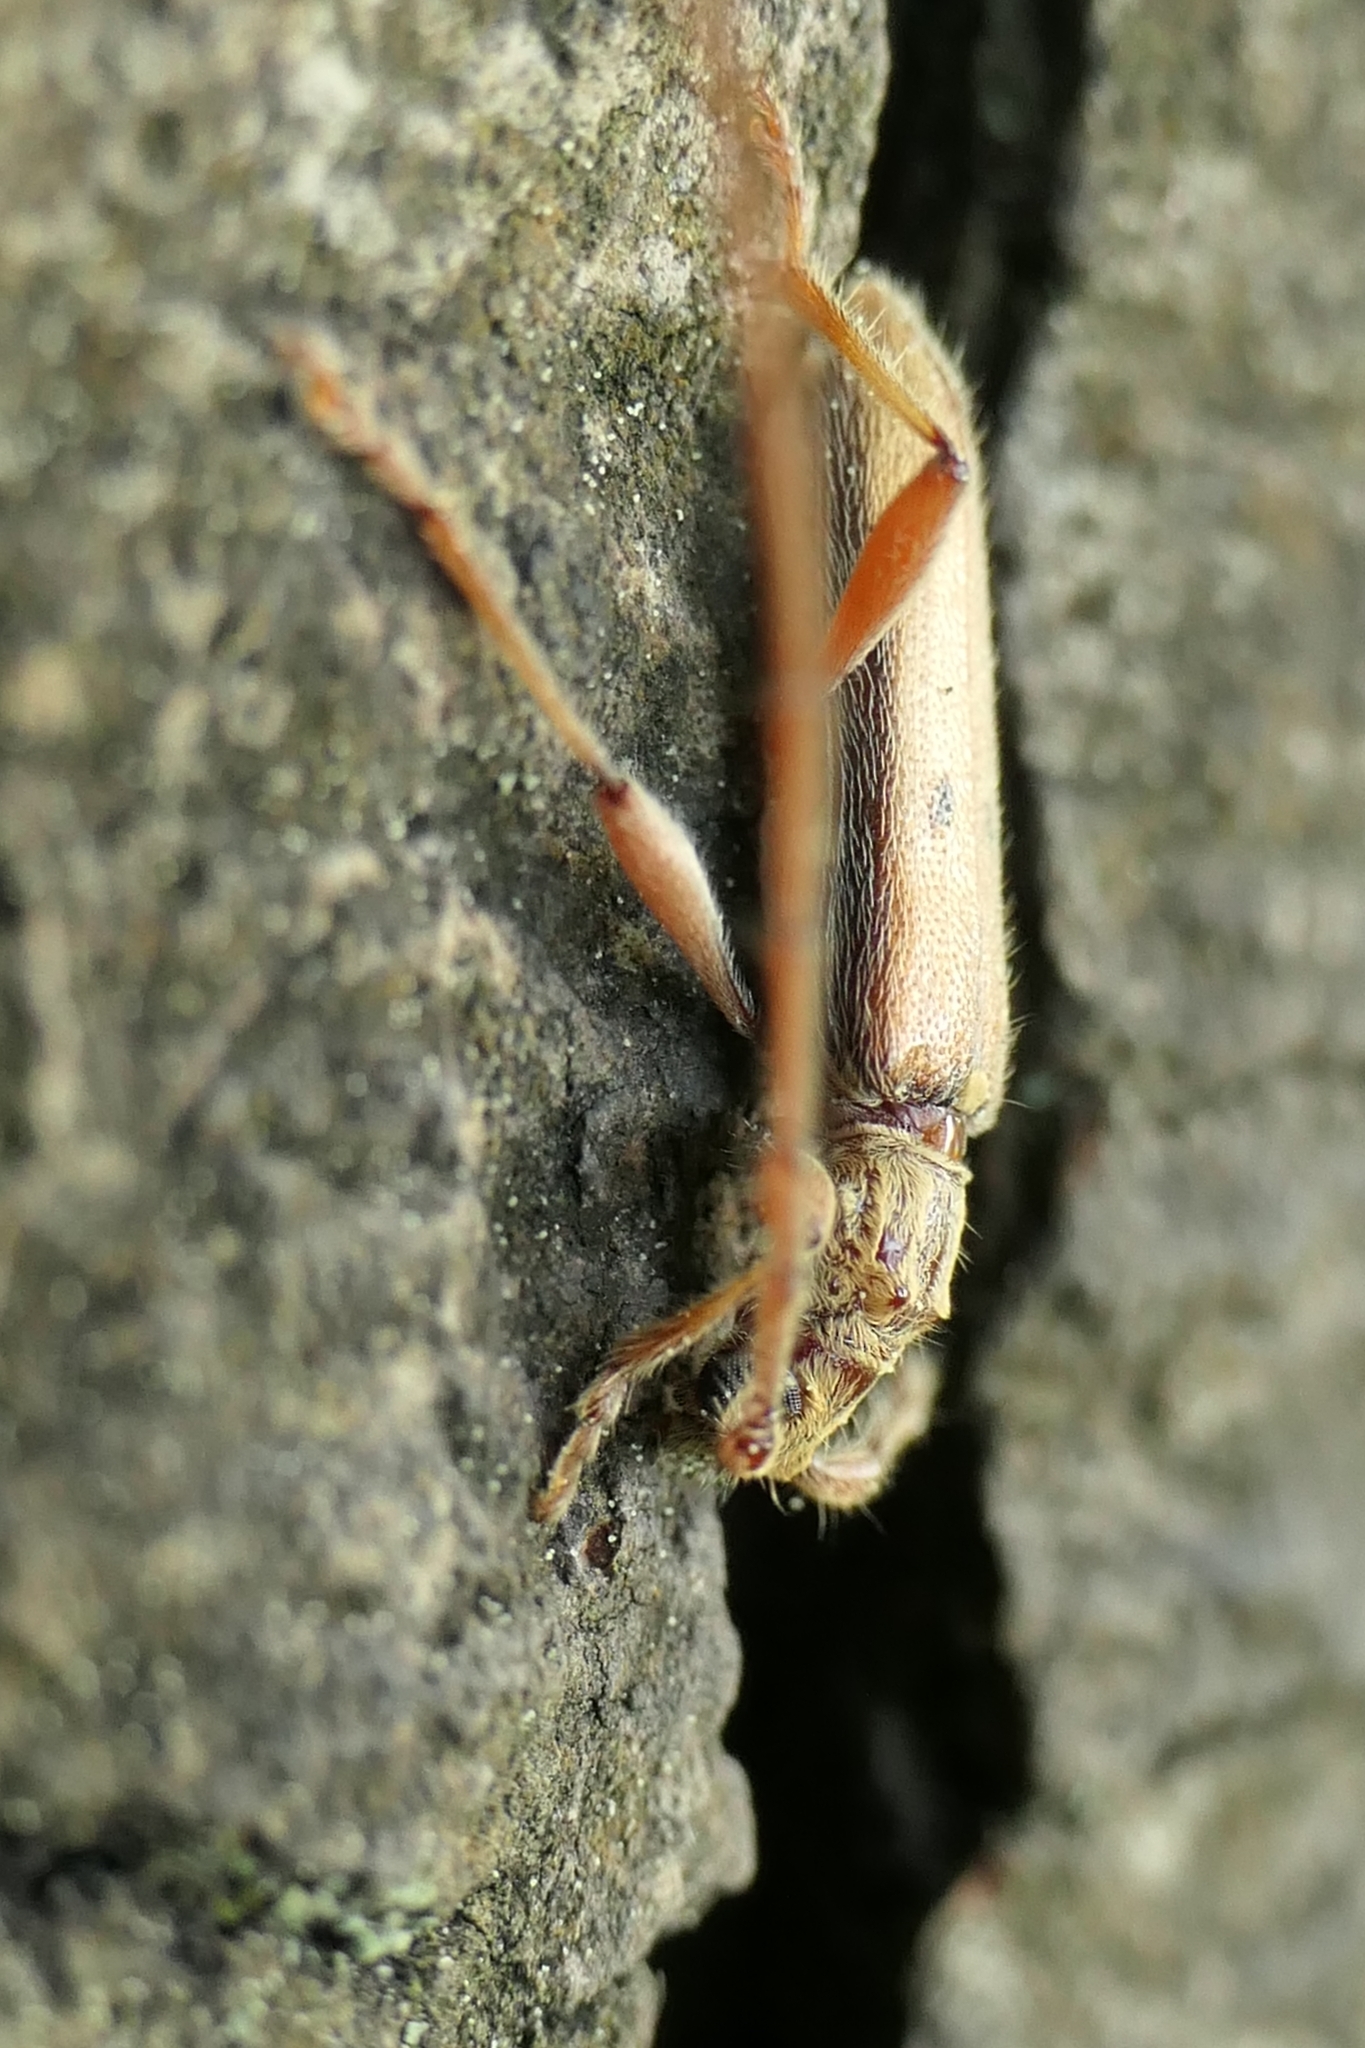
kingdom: Animalia
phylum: Arthropoda
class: Insecta
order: Coleoptera
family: Cerambycidae
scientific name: Cerambycidae
